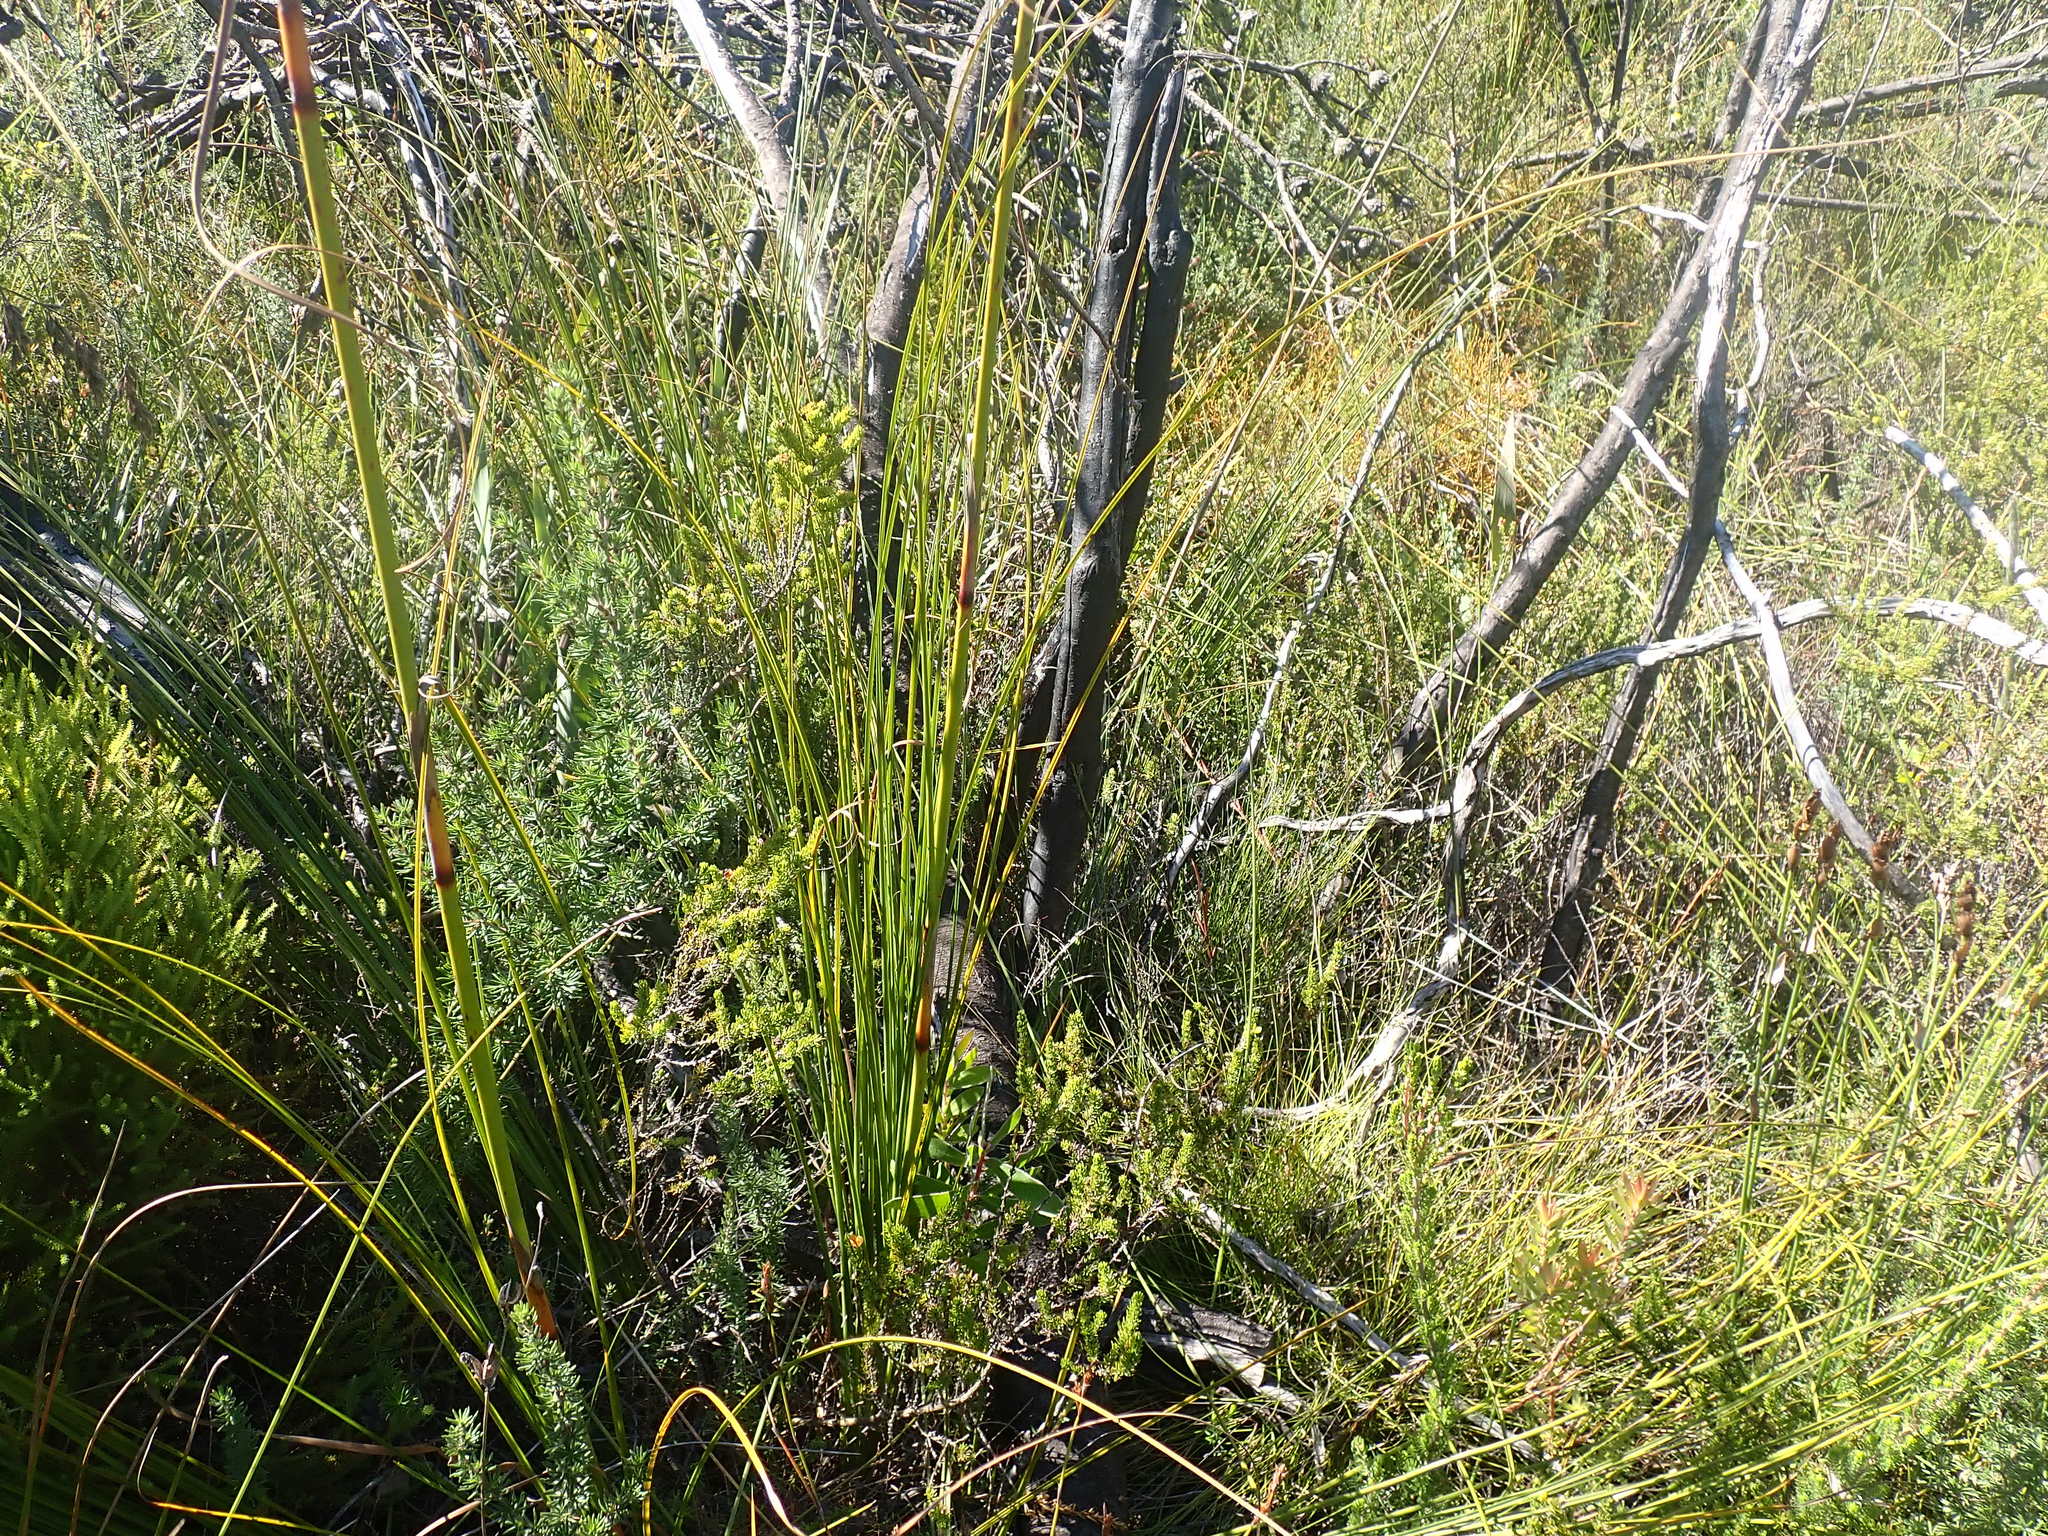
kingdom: Plantae
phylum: Tracheophyta
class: Liliopsida
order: Poales
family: Cyperaceae
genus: Tetraria
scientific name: Tetraria involucrata
